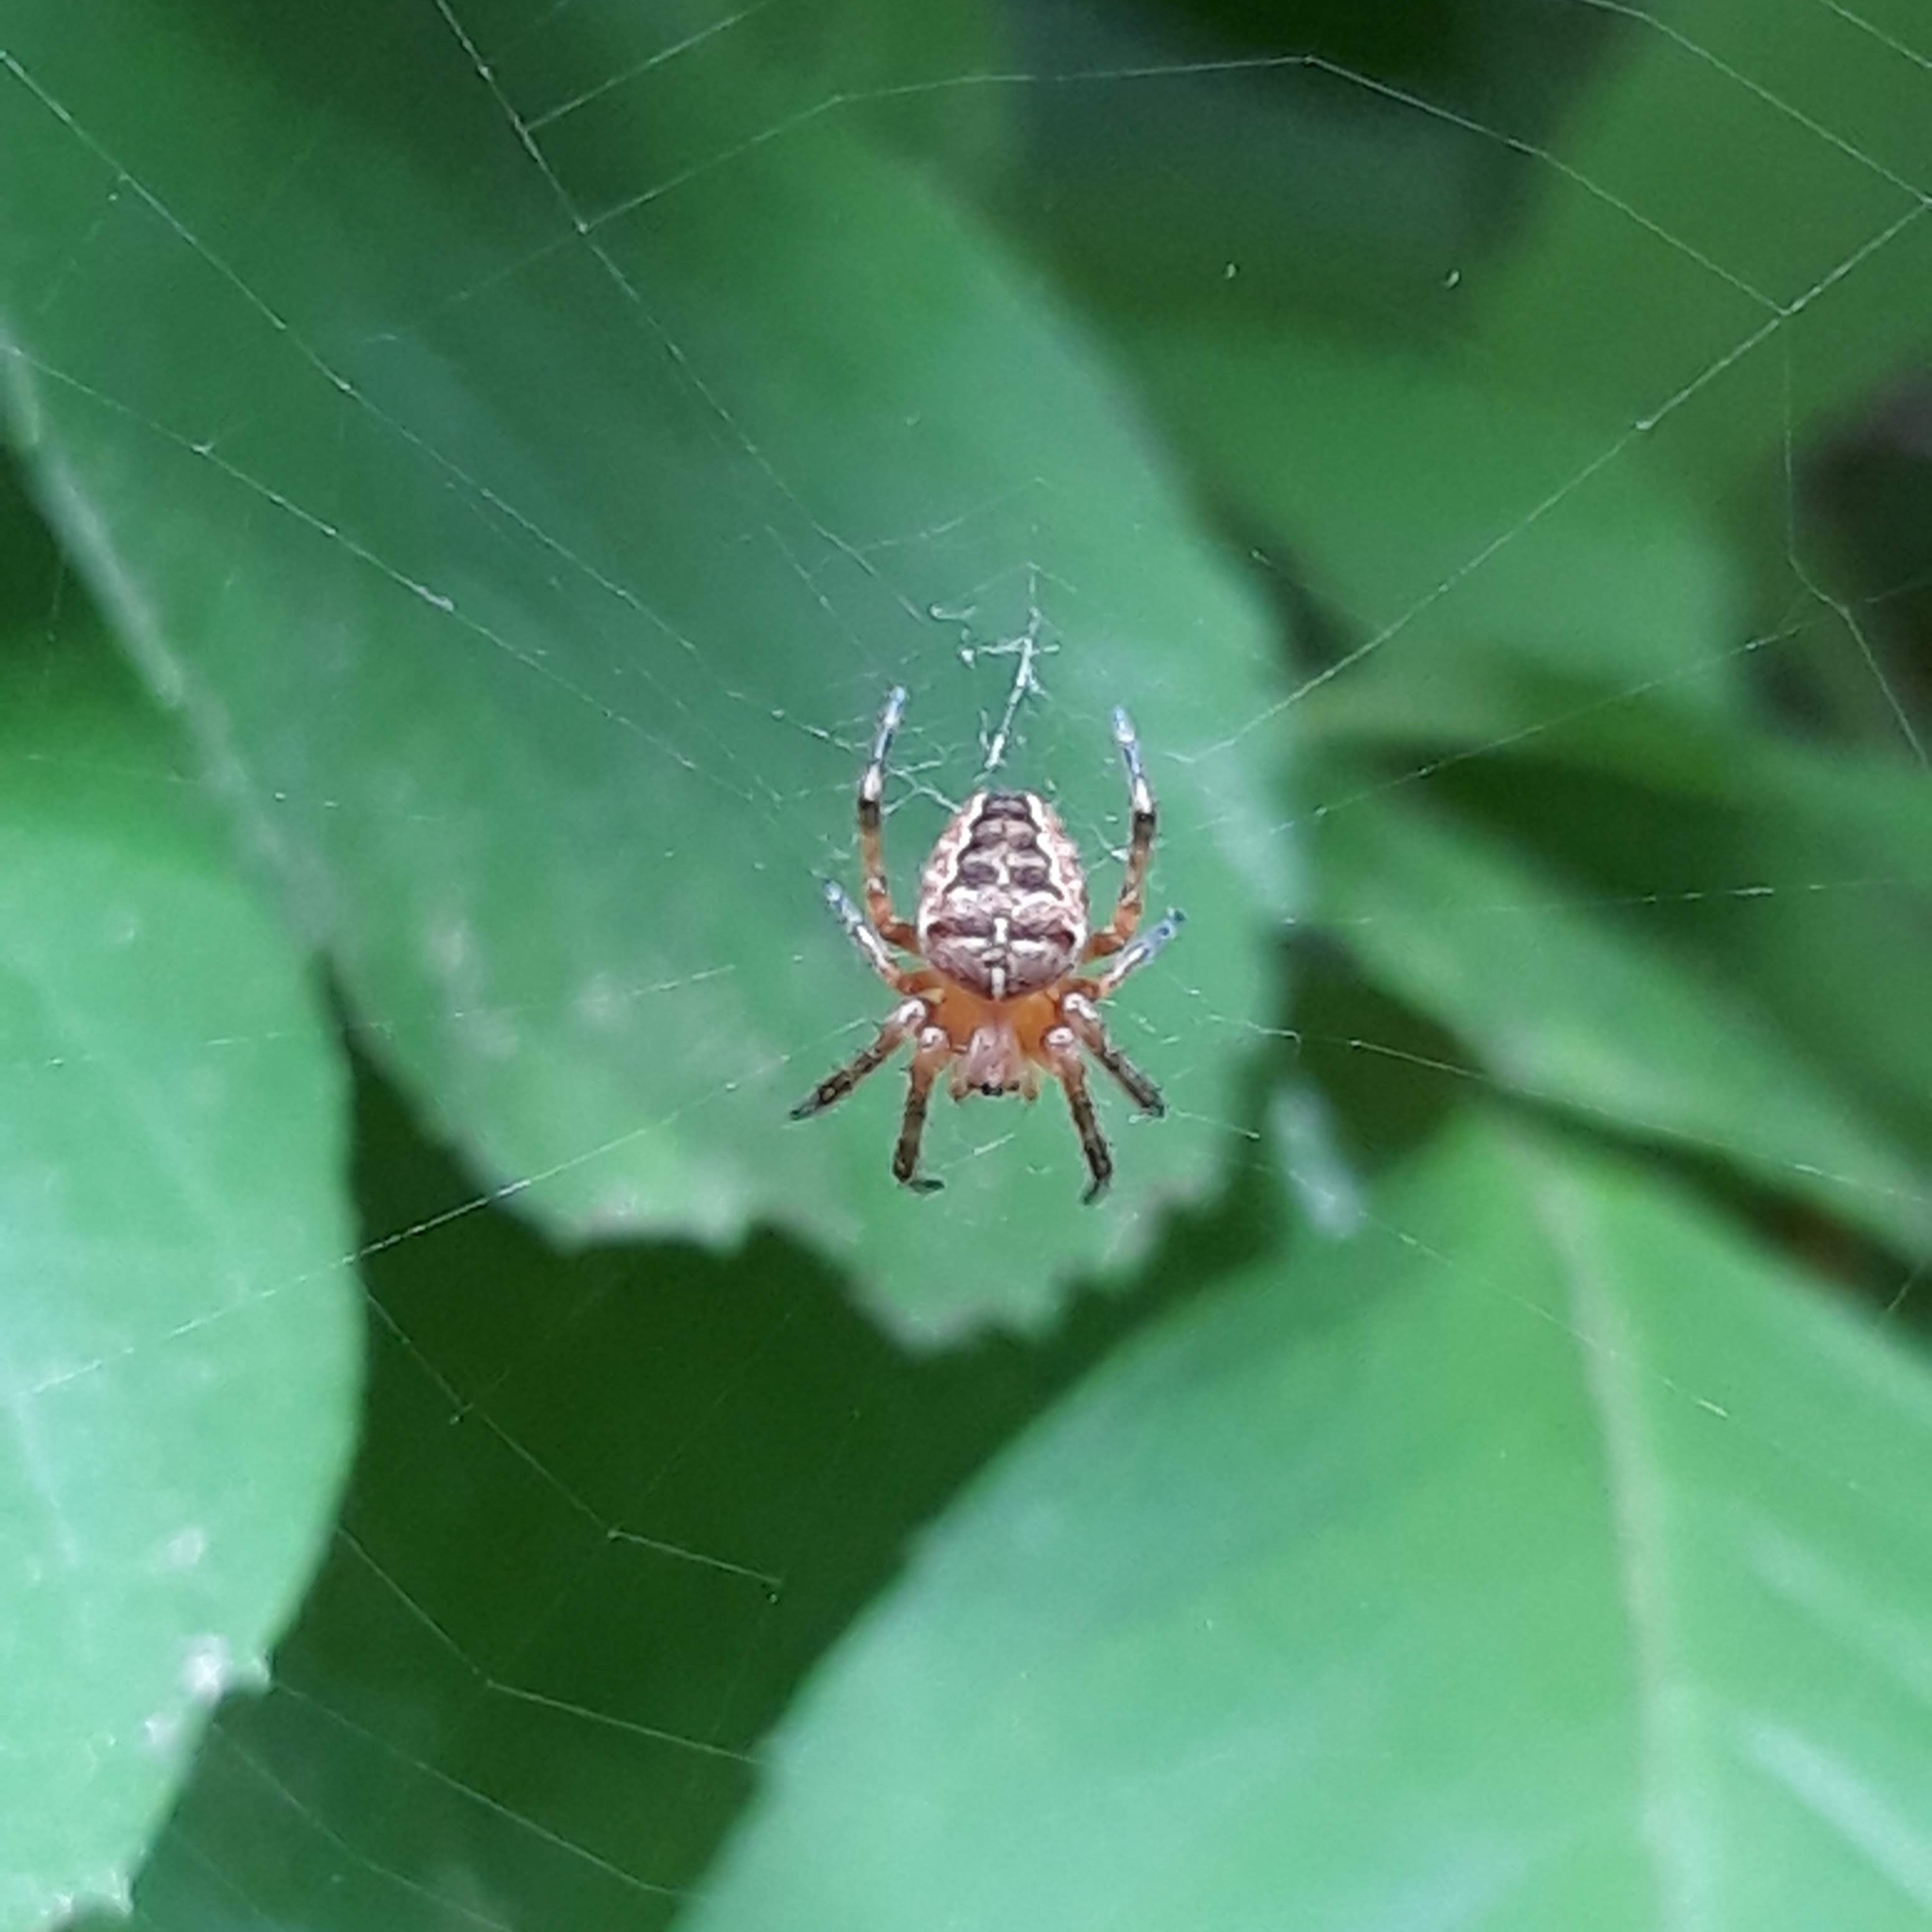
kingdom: Animalia
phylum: Arthropoda
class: Arachnida
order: Araneae
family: Araneidae
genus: Araneus
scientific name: Araneus diadematus
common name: Cross orbweaver
